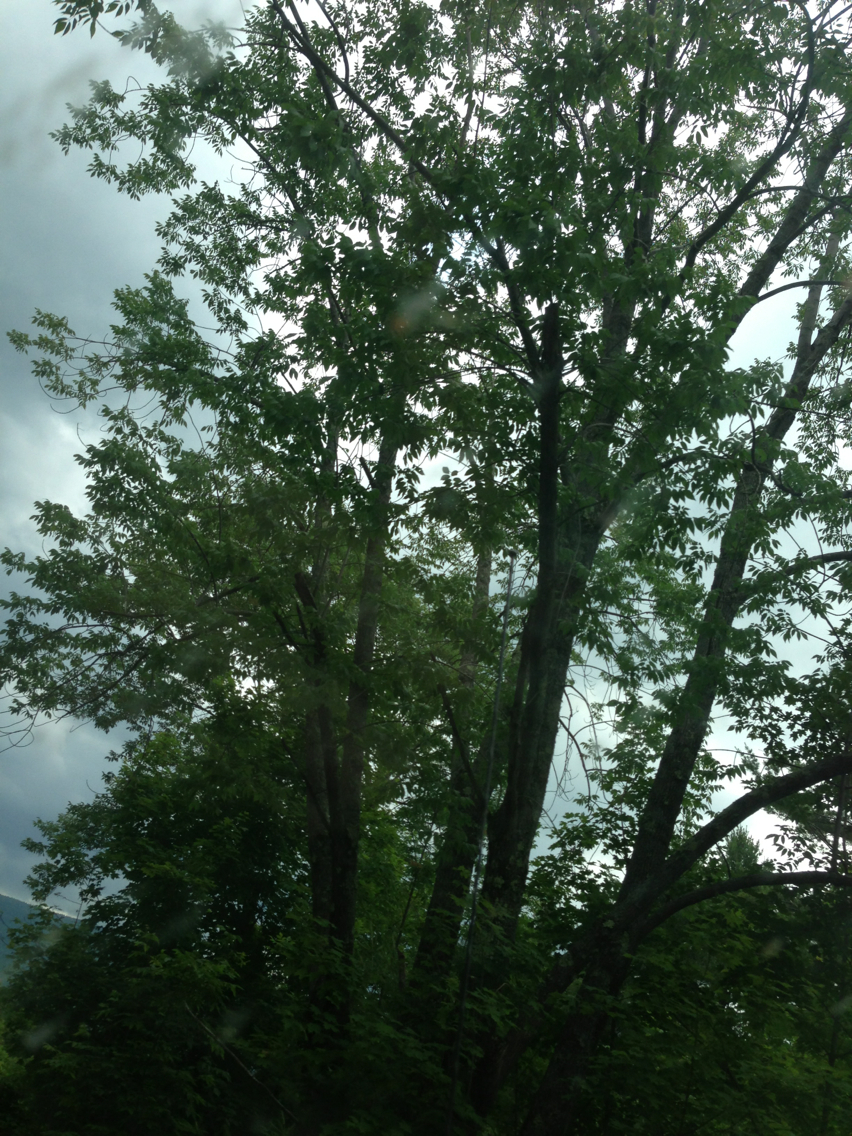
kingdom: Plantae
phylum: Tracheophyta
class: Magnoliopsida
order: Lamiales
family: Oleaceae
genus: Fraxinus
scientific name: Fraxinus americana
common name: White ash
